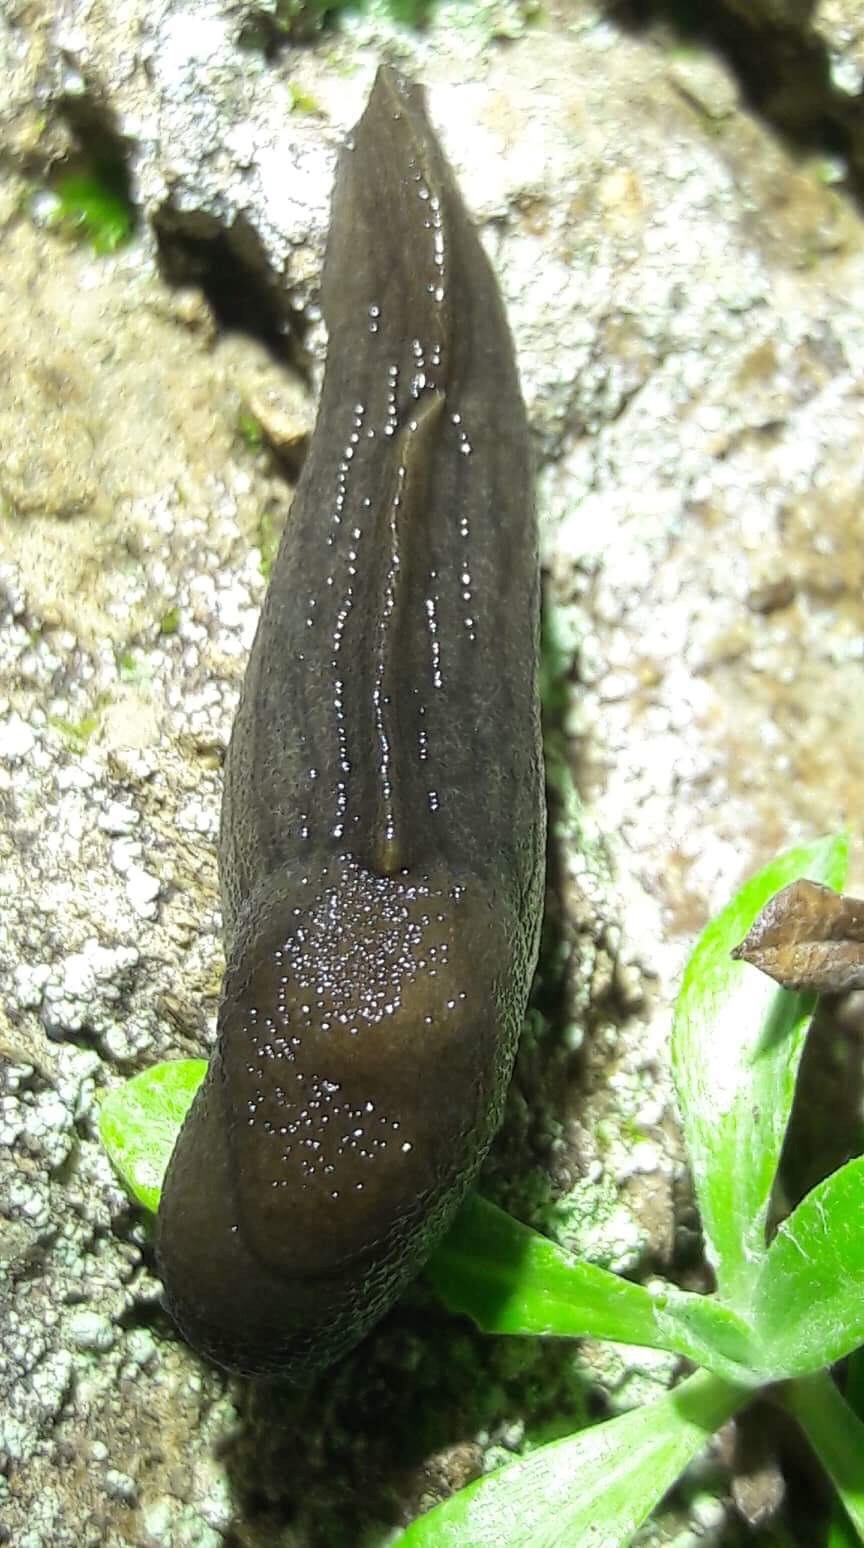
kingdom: Animalia
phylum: Mollusca
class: Gastropoda
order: Stylommatophora
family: Milacidae
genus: Milax
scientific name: Milax gagates
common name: Greenhouse slug
